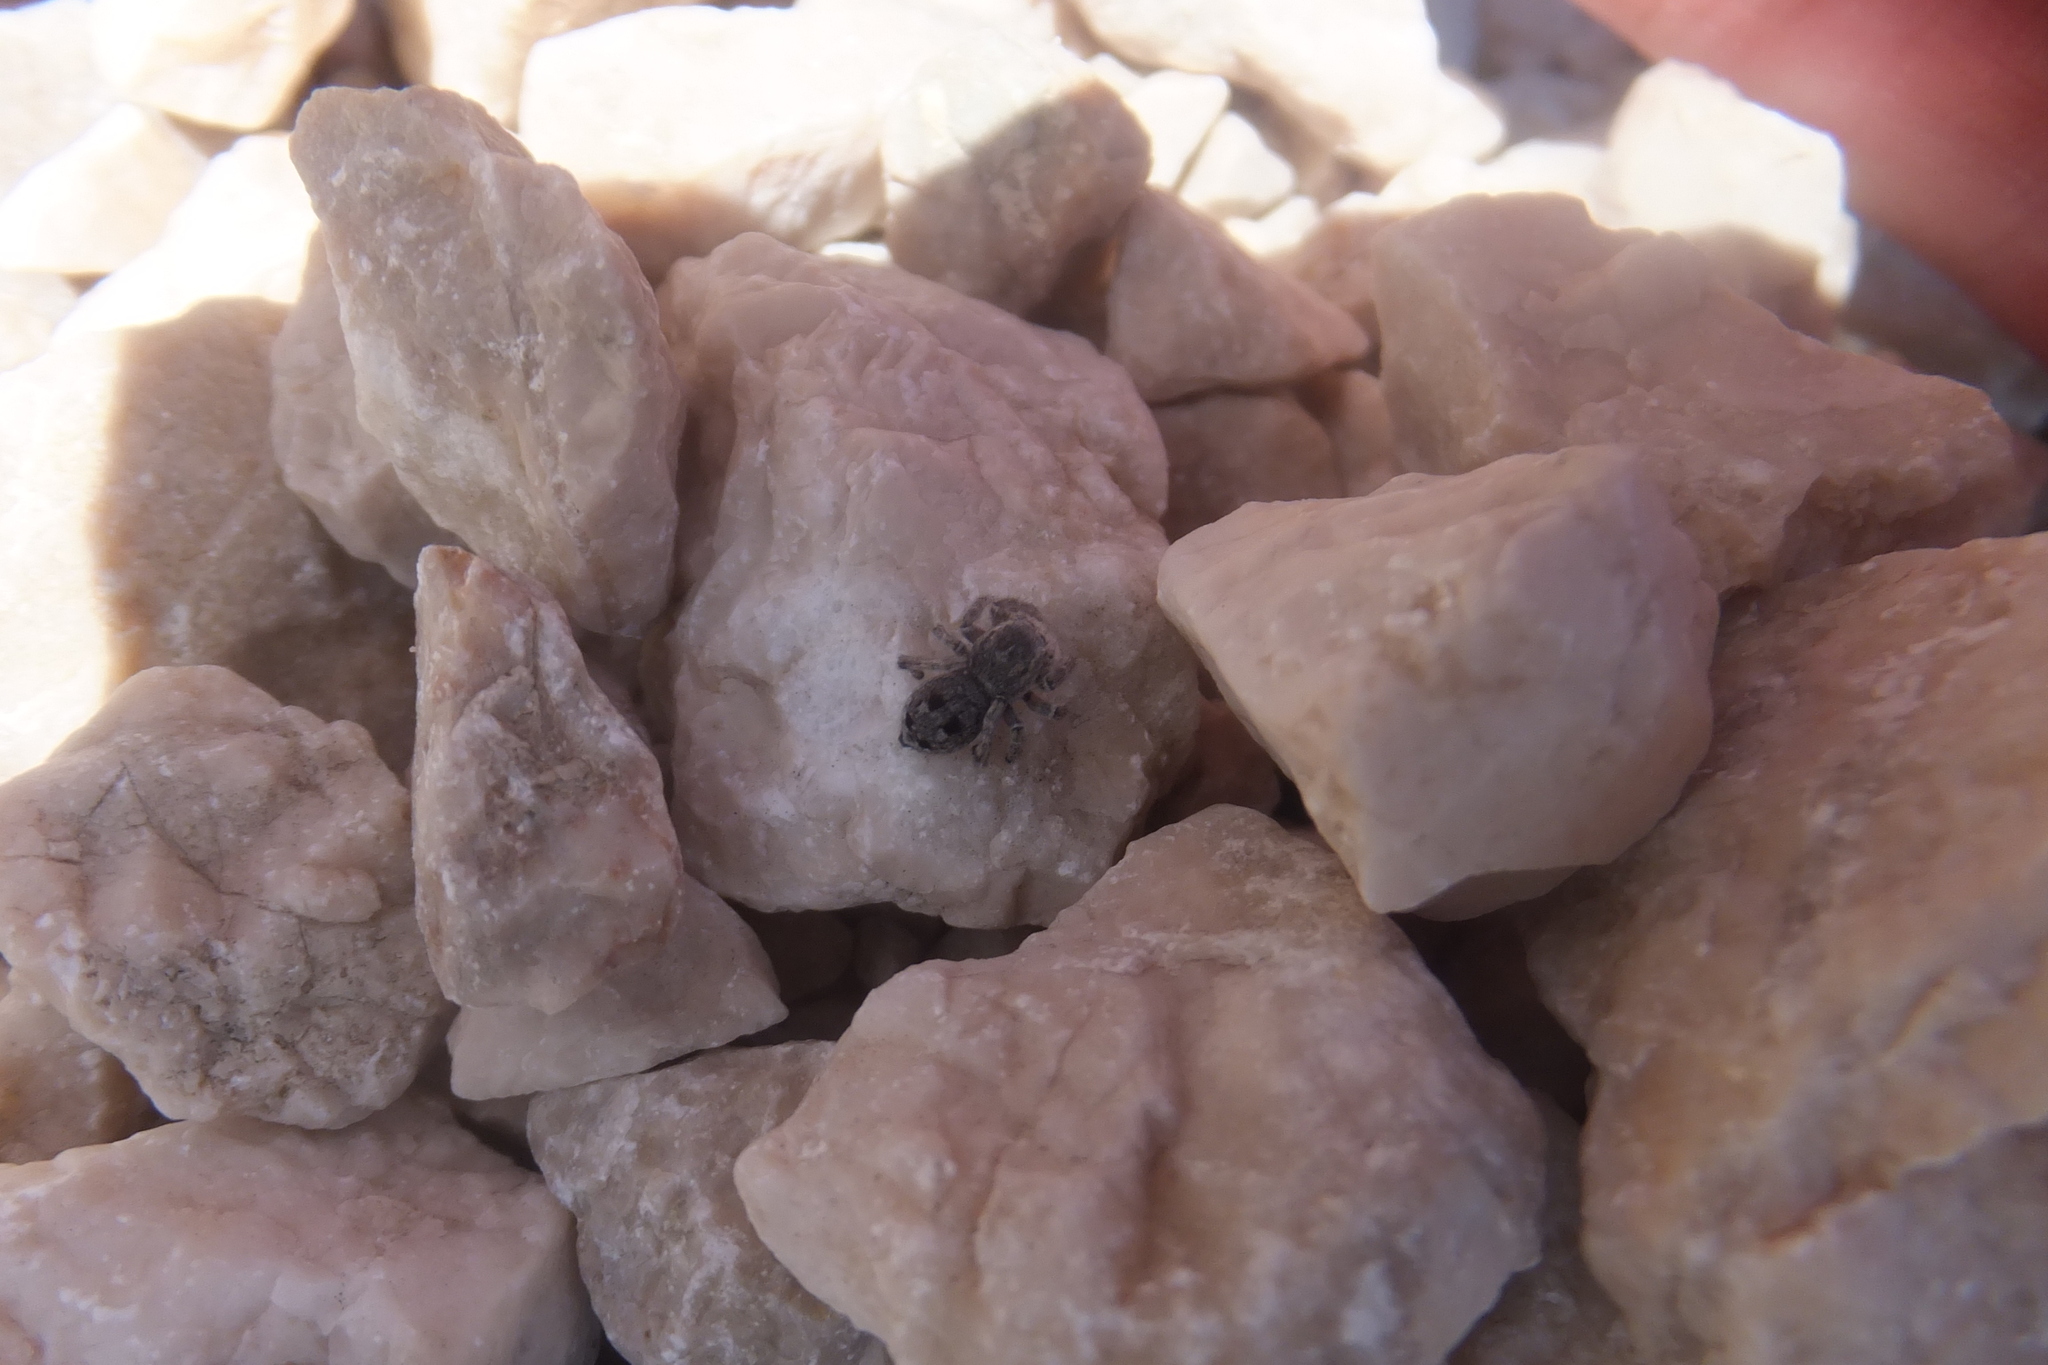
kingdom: Animalia
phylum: Arthropoda
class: Arachnida
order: Araneae
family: Salticidae
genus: Attulus
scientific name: Attulus atricapillus
